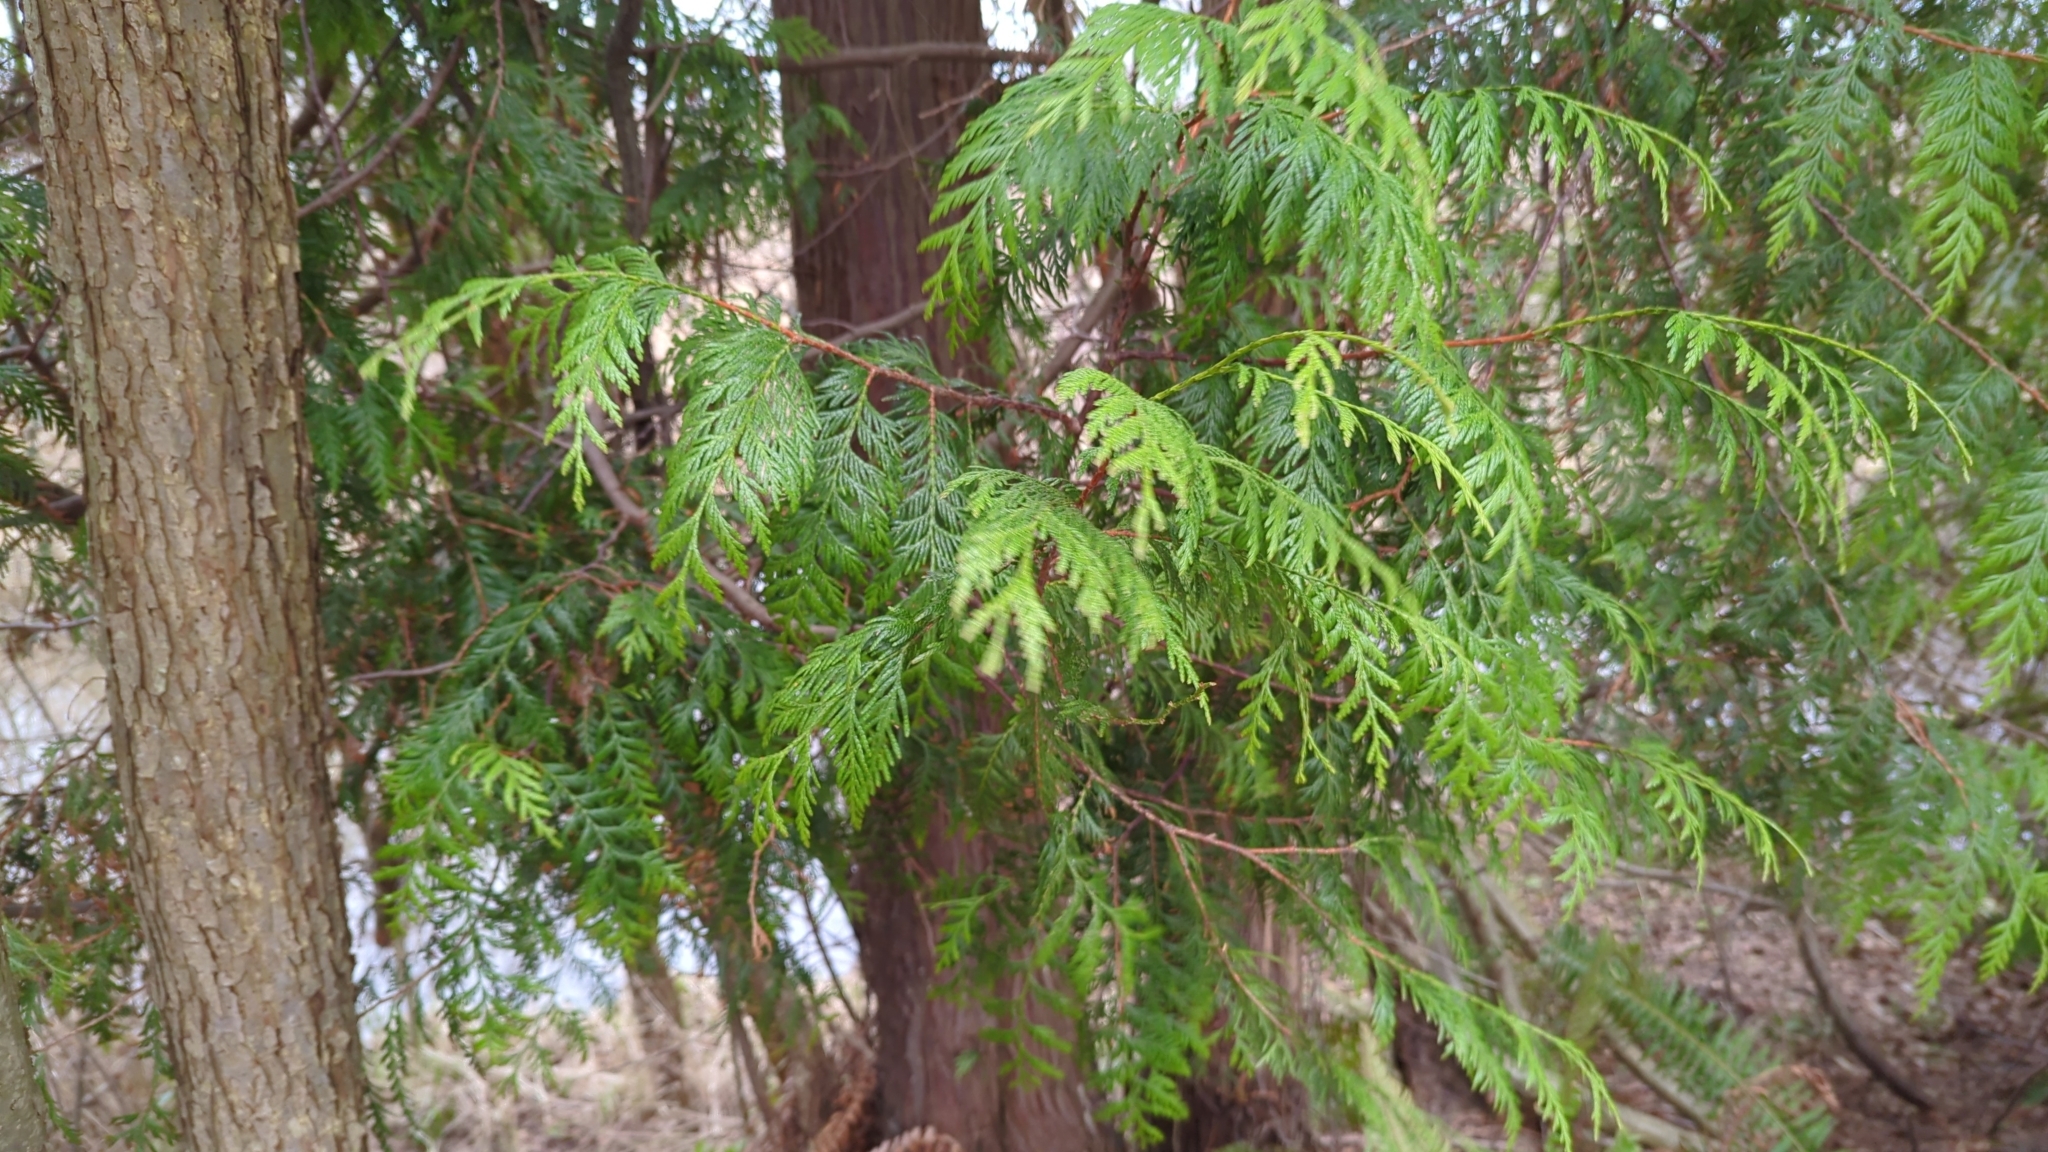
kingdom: Plantae
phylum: Tracheophyta
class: Pinopsida
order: Pinales
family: Cupressaceae
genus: Thuja
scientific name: Thuja plicata
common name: Western red-cedar
